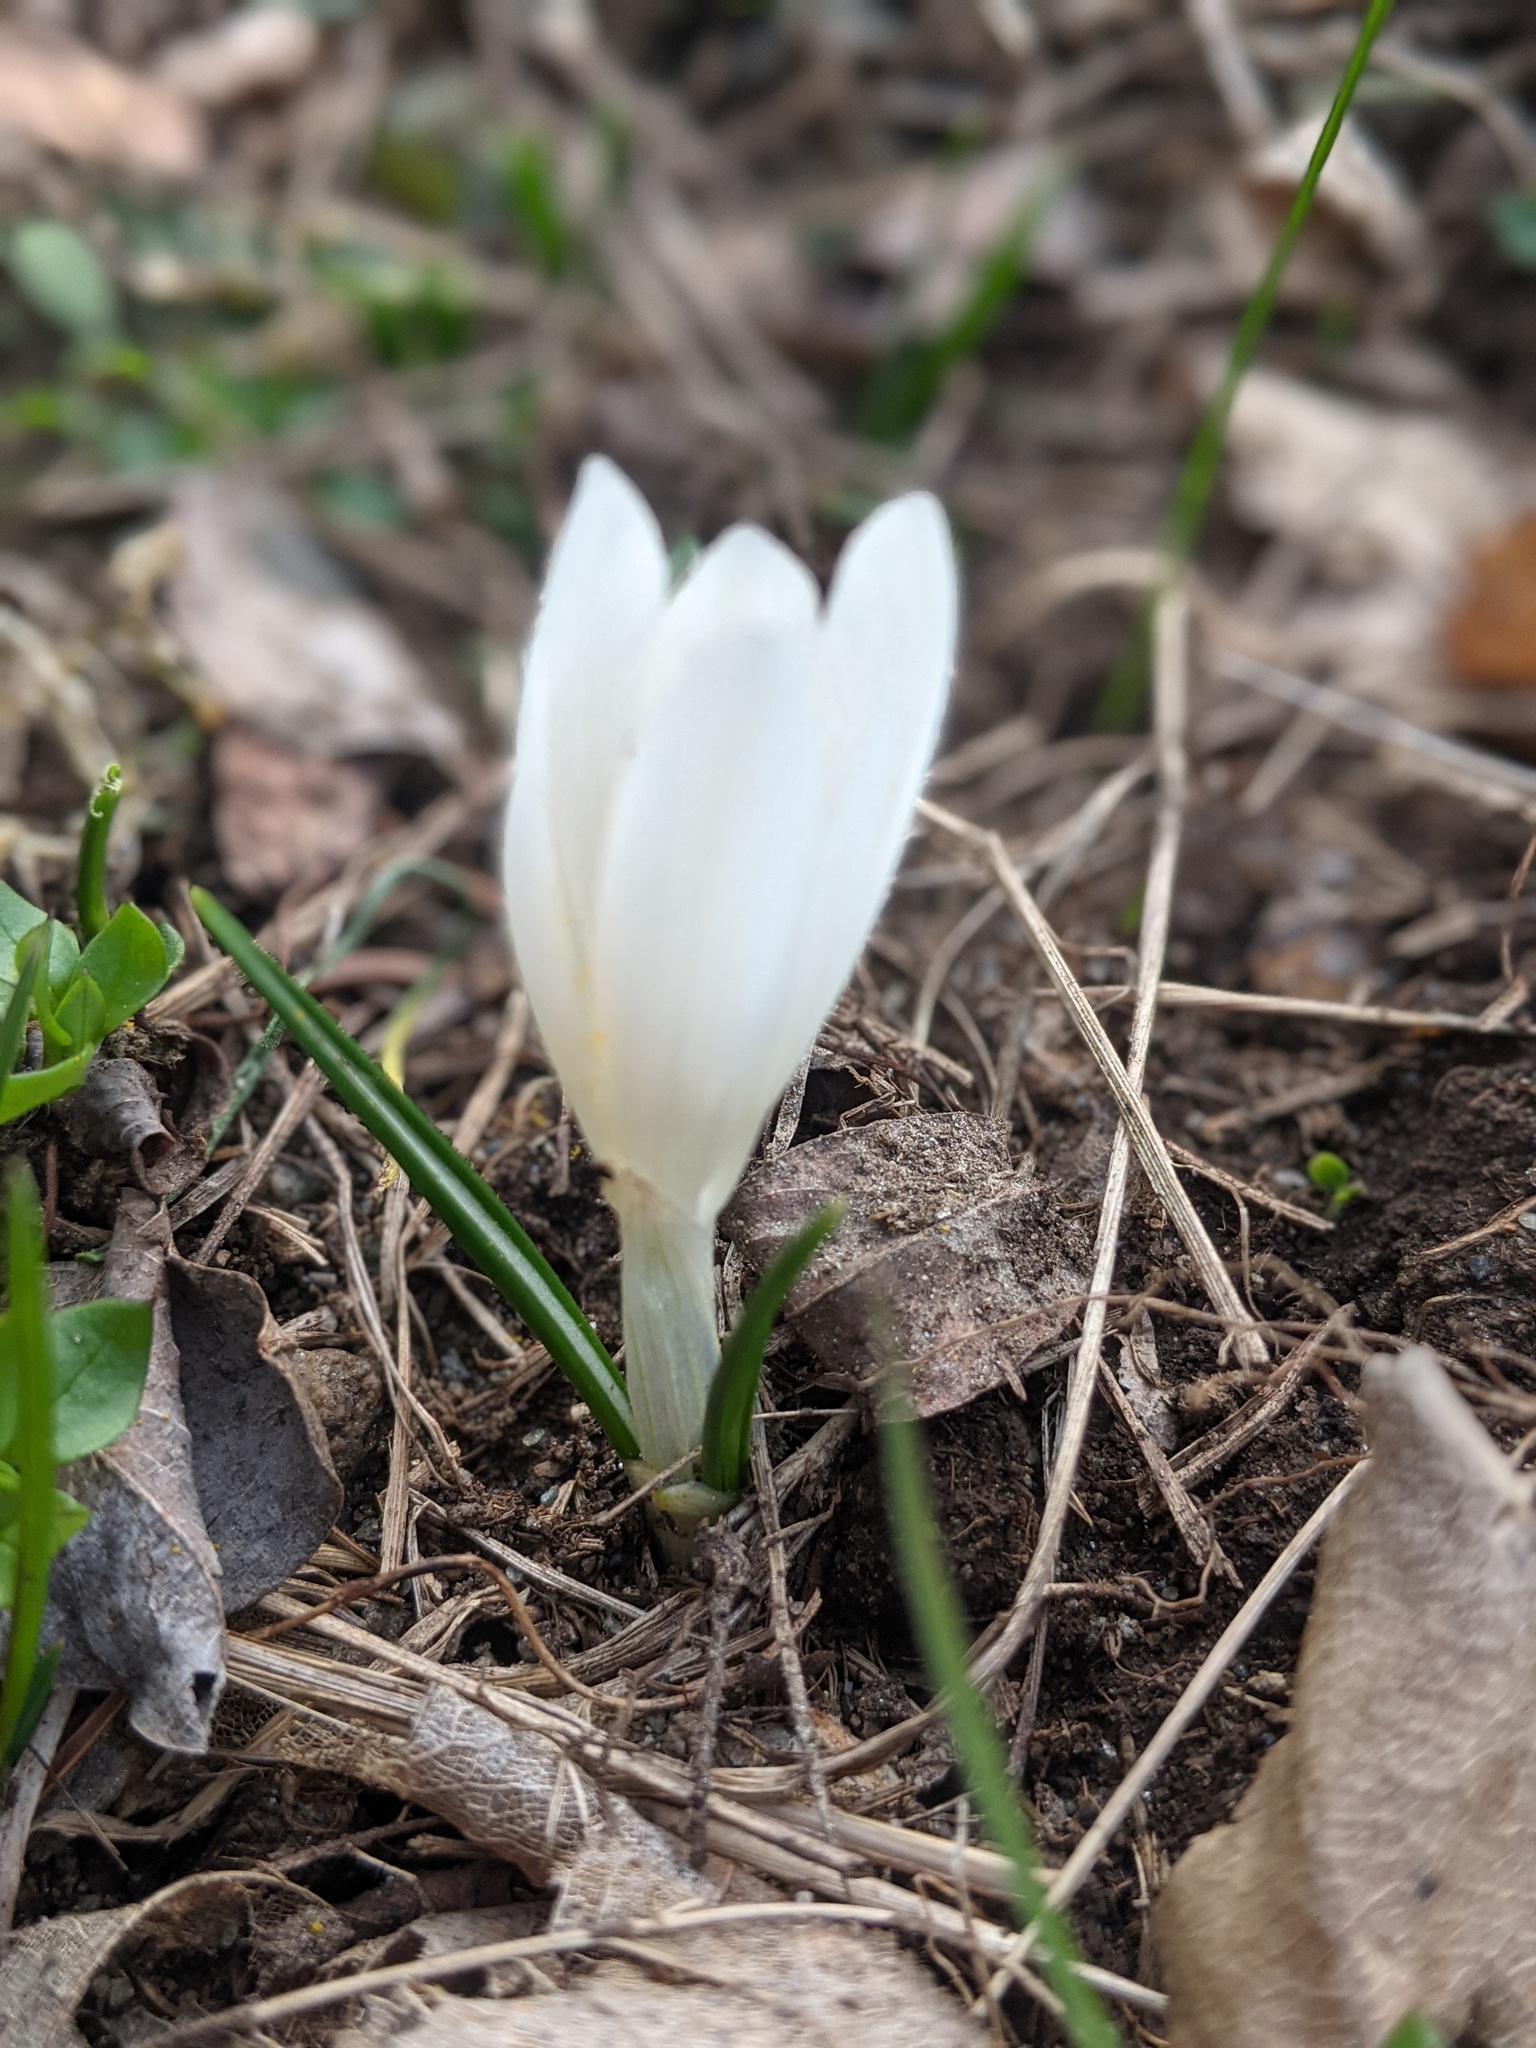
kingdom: Plantae
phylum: Tracheophyta
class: Liliopsida
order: Asparagales
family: Iridaceae
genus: Crocus
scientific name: Crocus vernus
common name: Spring crocus
